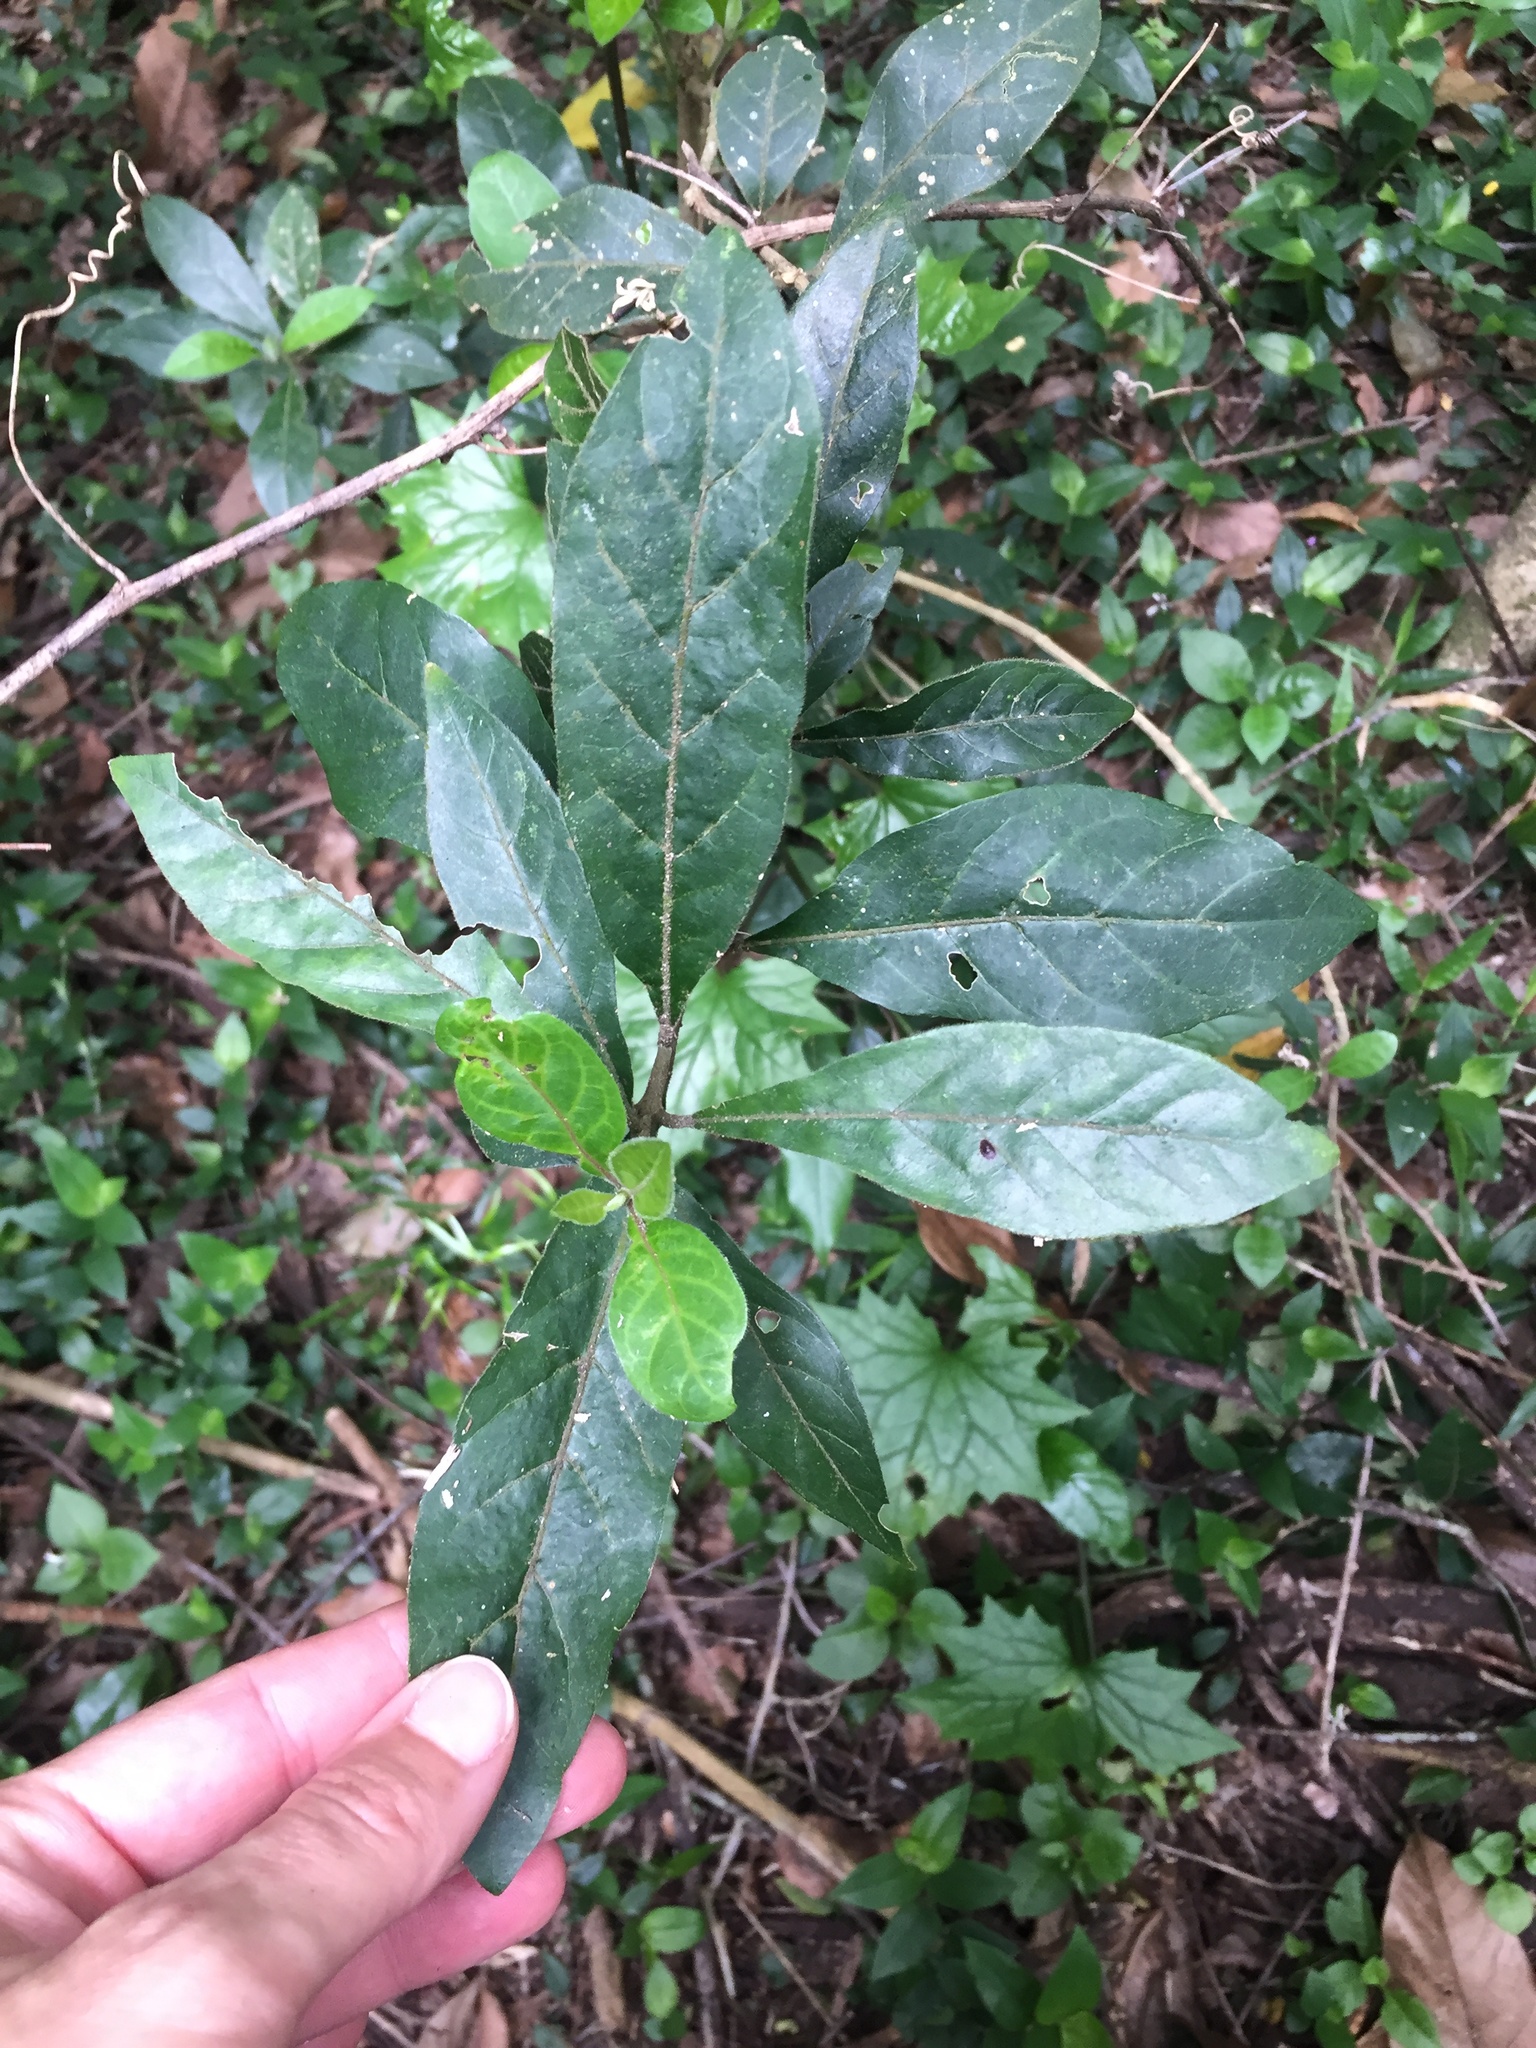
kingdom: Plantae
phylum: Tracheophyta
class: Magnoliopsida
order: Gentianales
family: Rubiaceae
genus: Rothmannia
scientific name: Rothmannia globosa
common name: September bells
